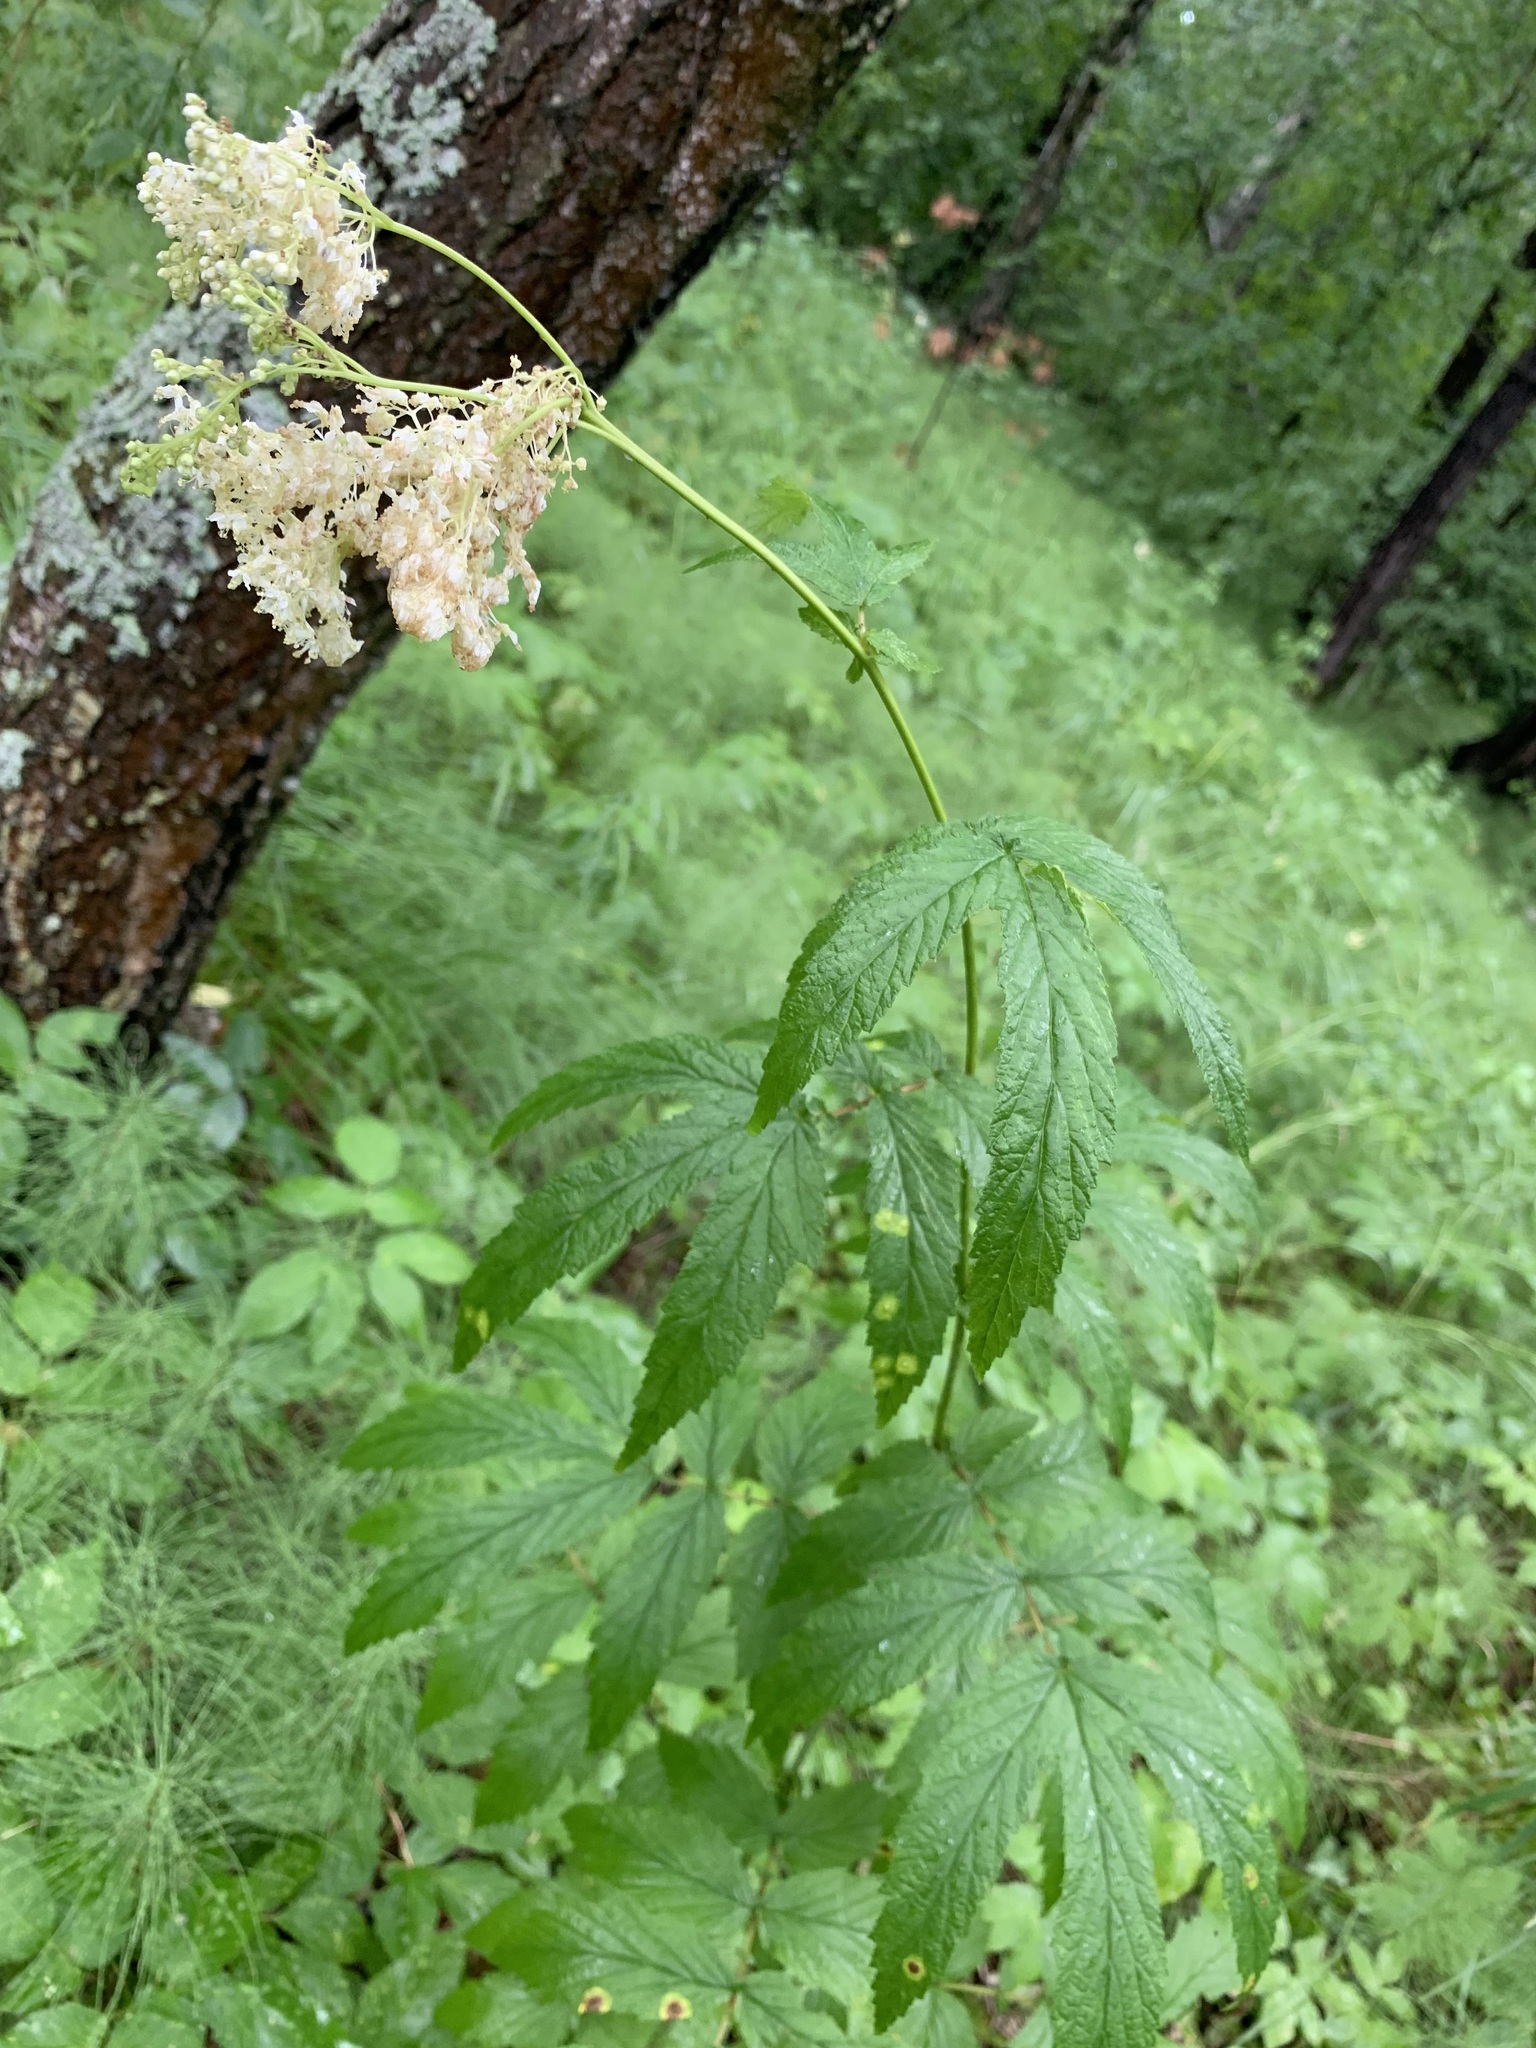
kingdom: Plantae
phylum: Tracheophyta
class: Magnoliopsida
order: Rosales
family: Rosaceae
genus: Filipendula
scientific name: Filipendula ulmaria
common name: Meadowsweet
